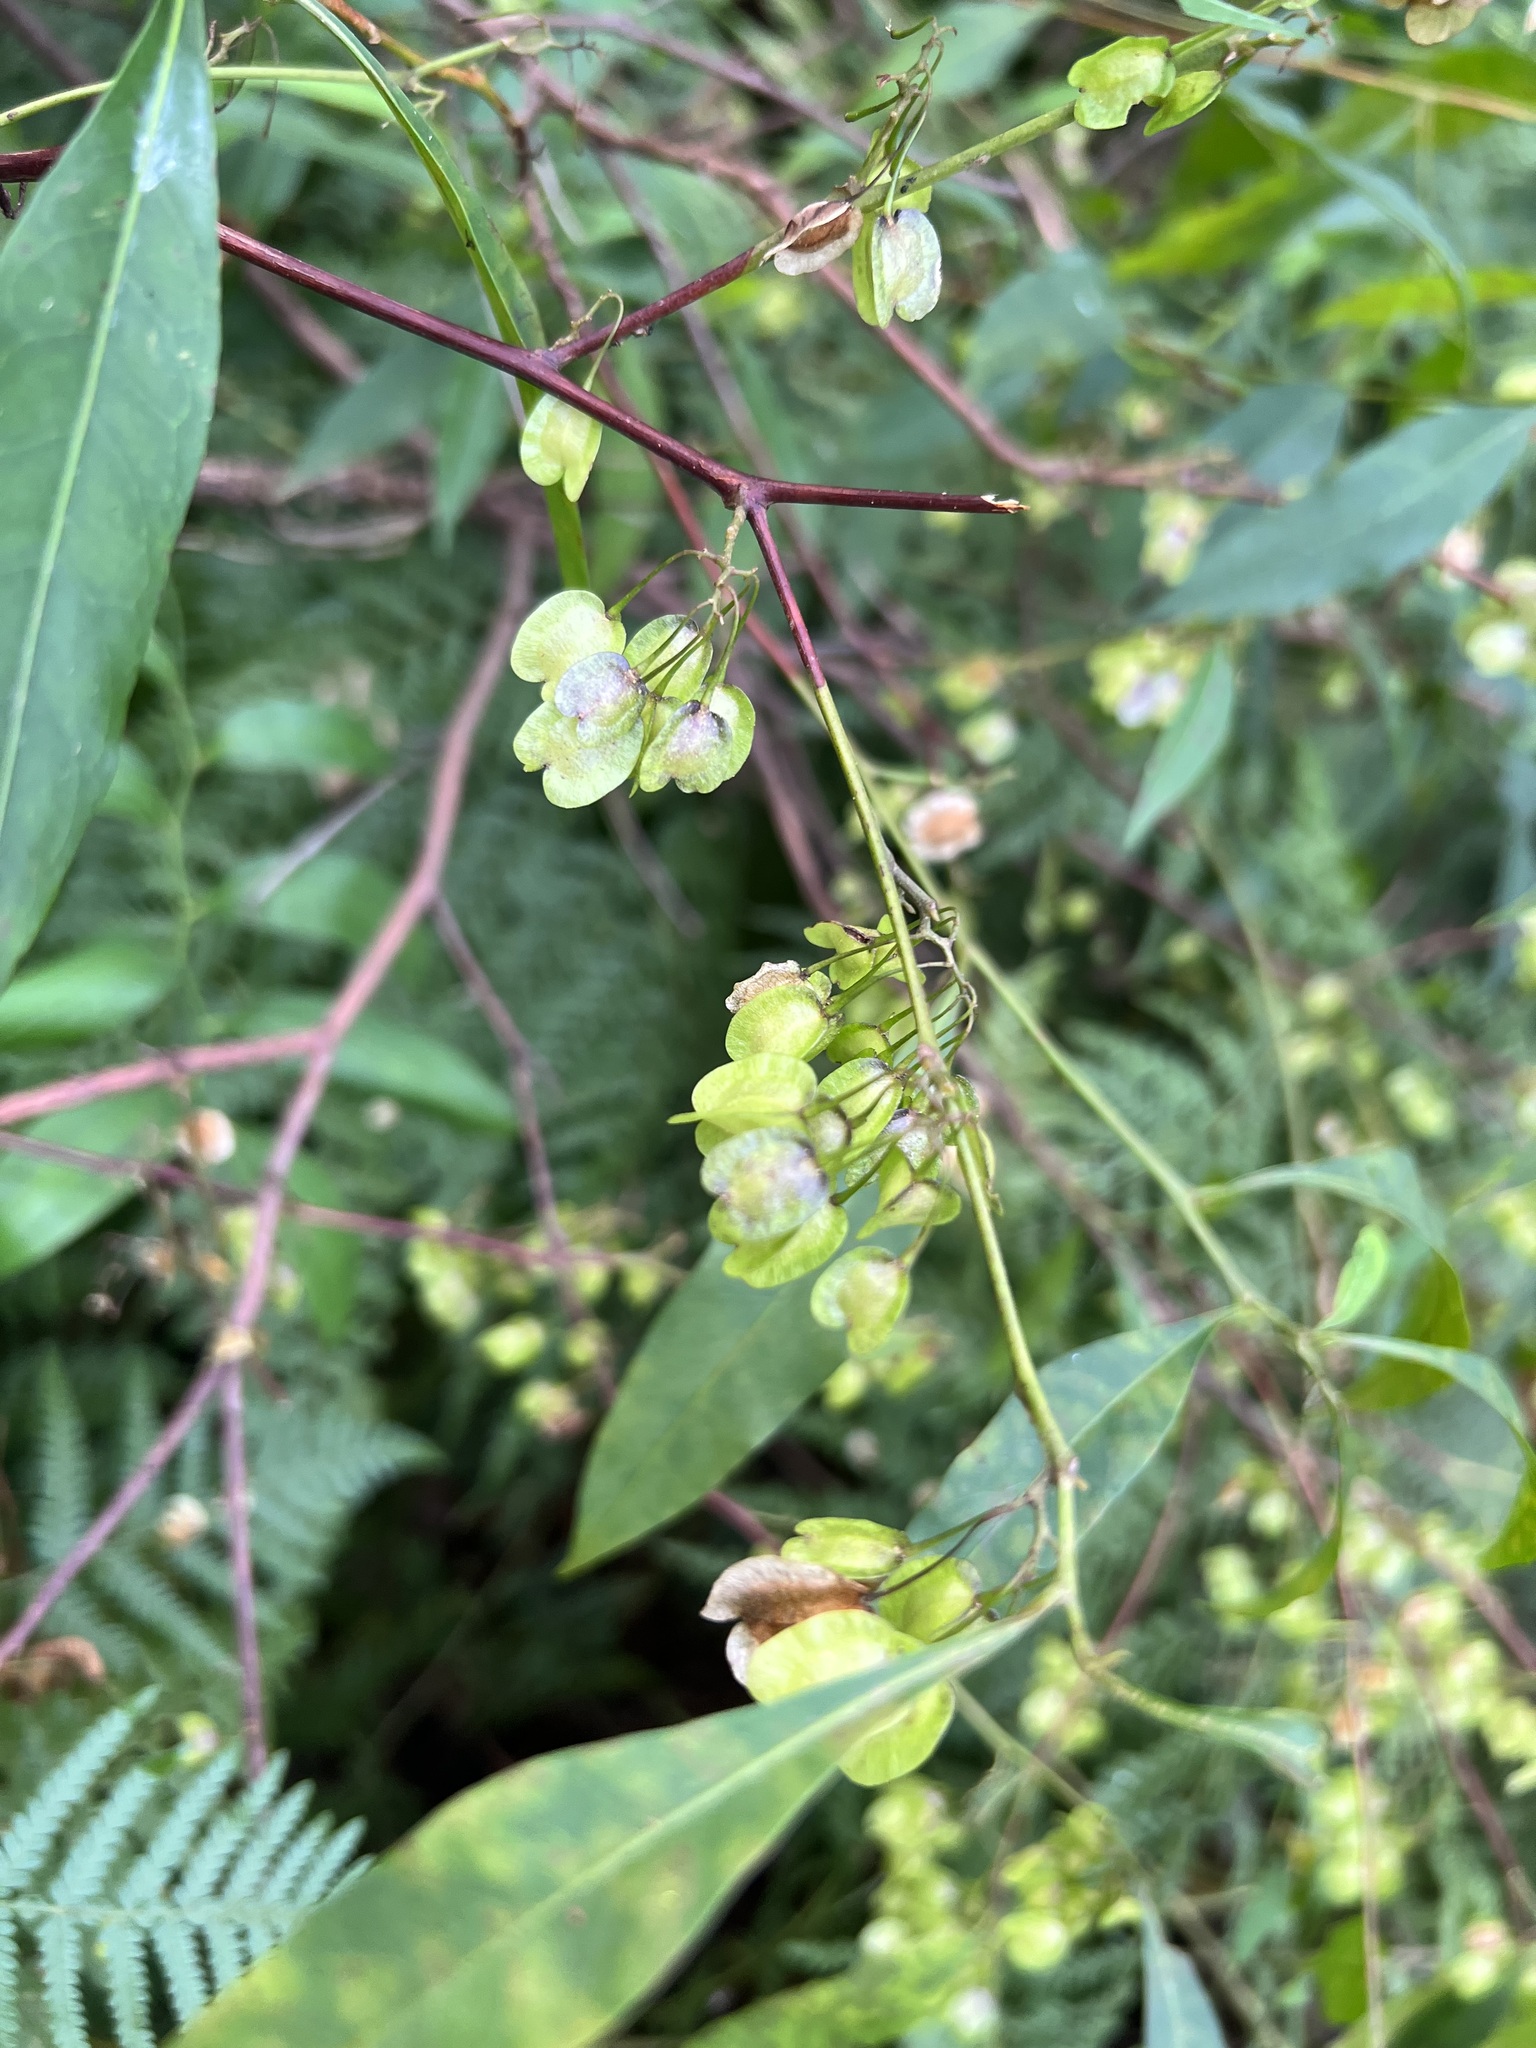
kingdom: Plantae
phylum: Tracheophyta
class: Magnoliopsida
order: Sapindales
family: Sapindaceae
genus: Dodonaea
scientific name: Dodonaea triquetra
